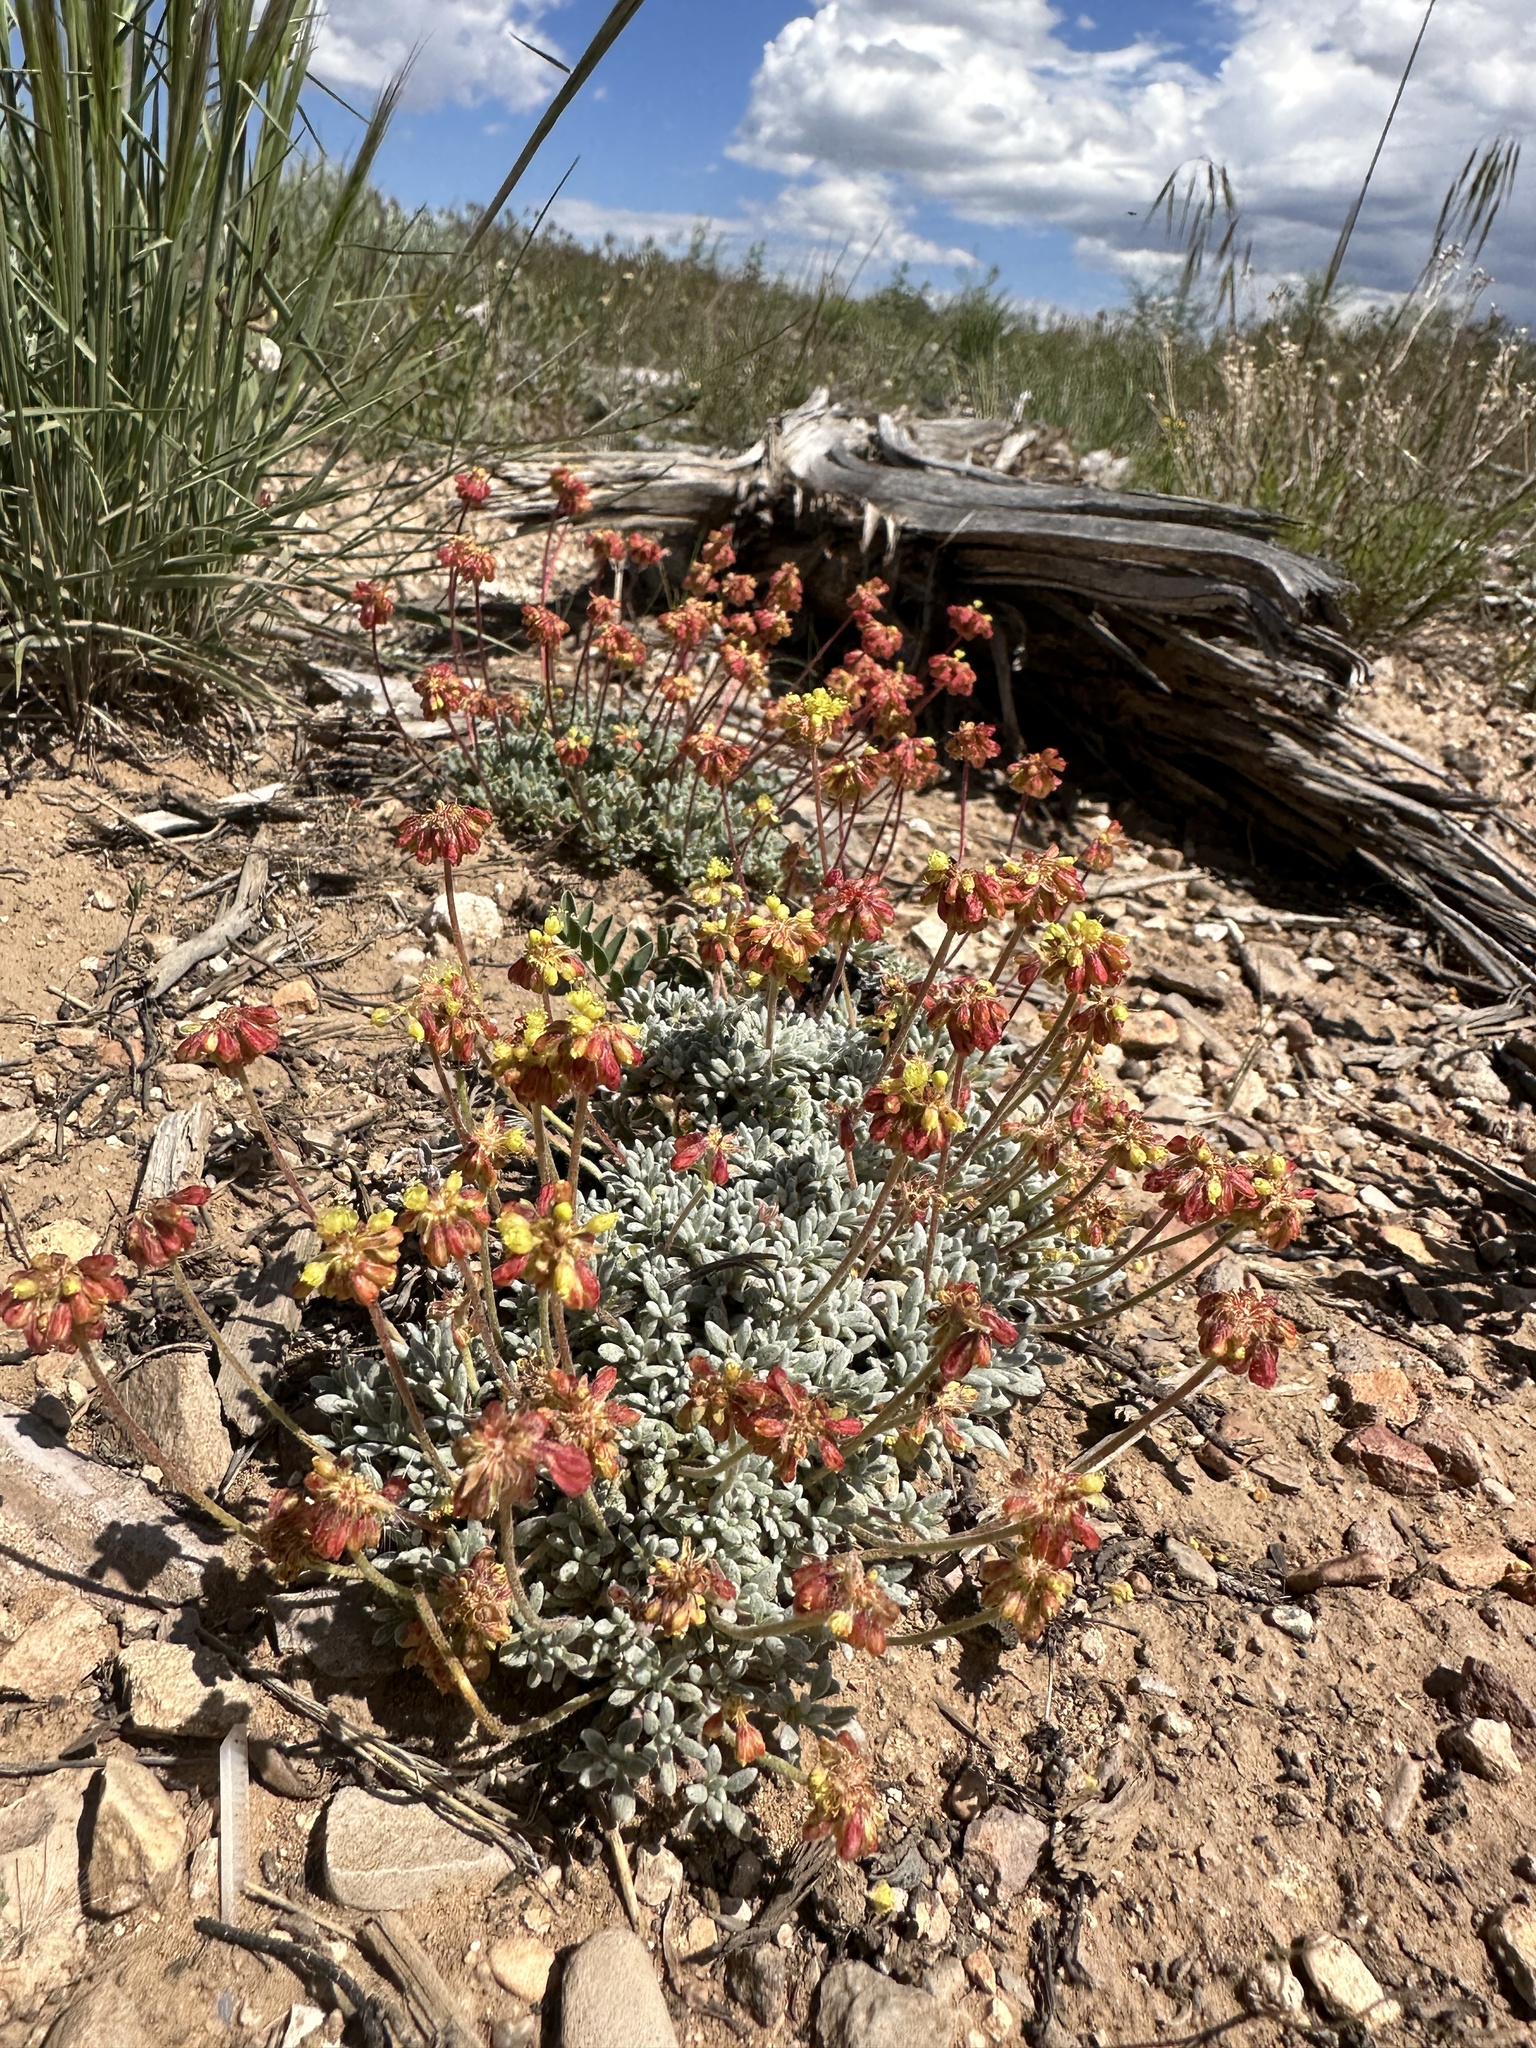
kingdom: Plantae
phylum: Tracheophyta
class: Magnoliopsida
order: Caryophyllales
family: Polygonaceae
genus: Eriogonum
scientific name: Eriogonum caespitosum
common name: Matted wild buckwheat
